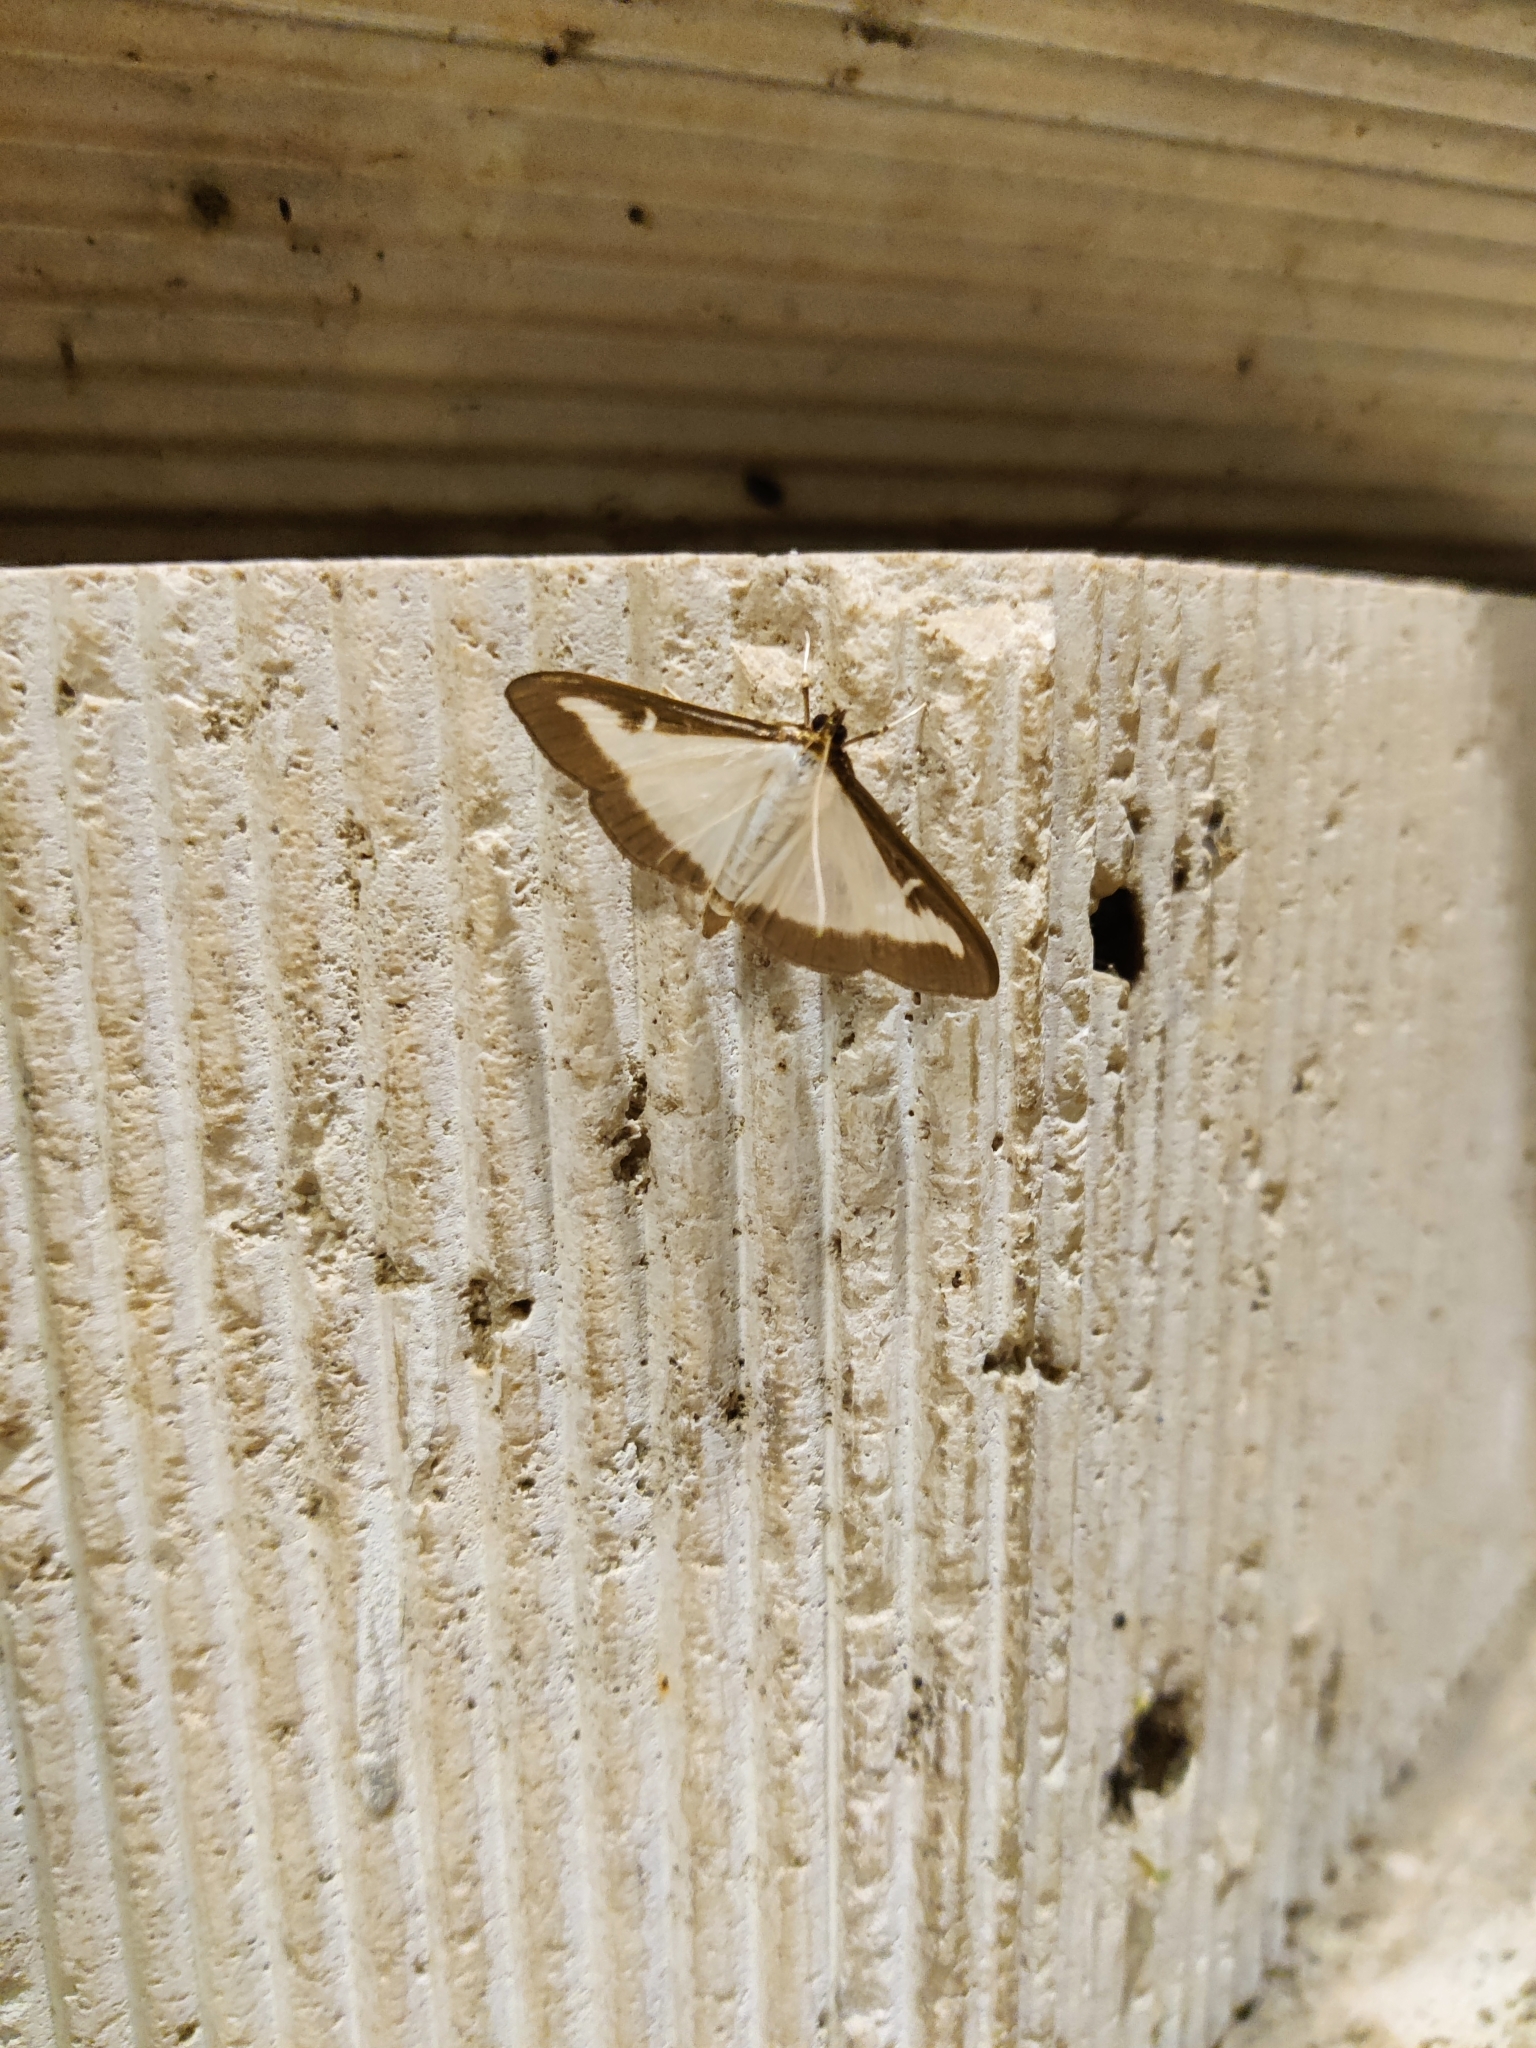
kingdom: Animalia
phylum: Arthropoda
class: Insecta
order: Lepidoptera
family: Crambidae
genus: Cydalima
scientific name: Cydalima perspectalis
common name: Box tree moth
